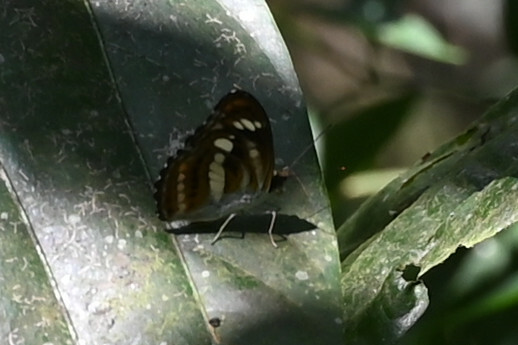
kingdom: Animalia
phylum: Arthropoda
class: Insecta
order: Lepidoptera
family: Nymphalidae
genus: Parathyma
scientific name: Parathyma nefte
